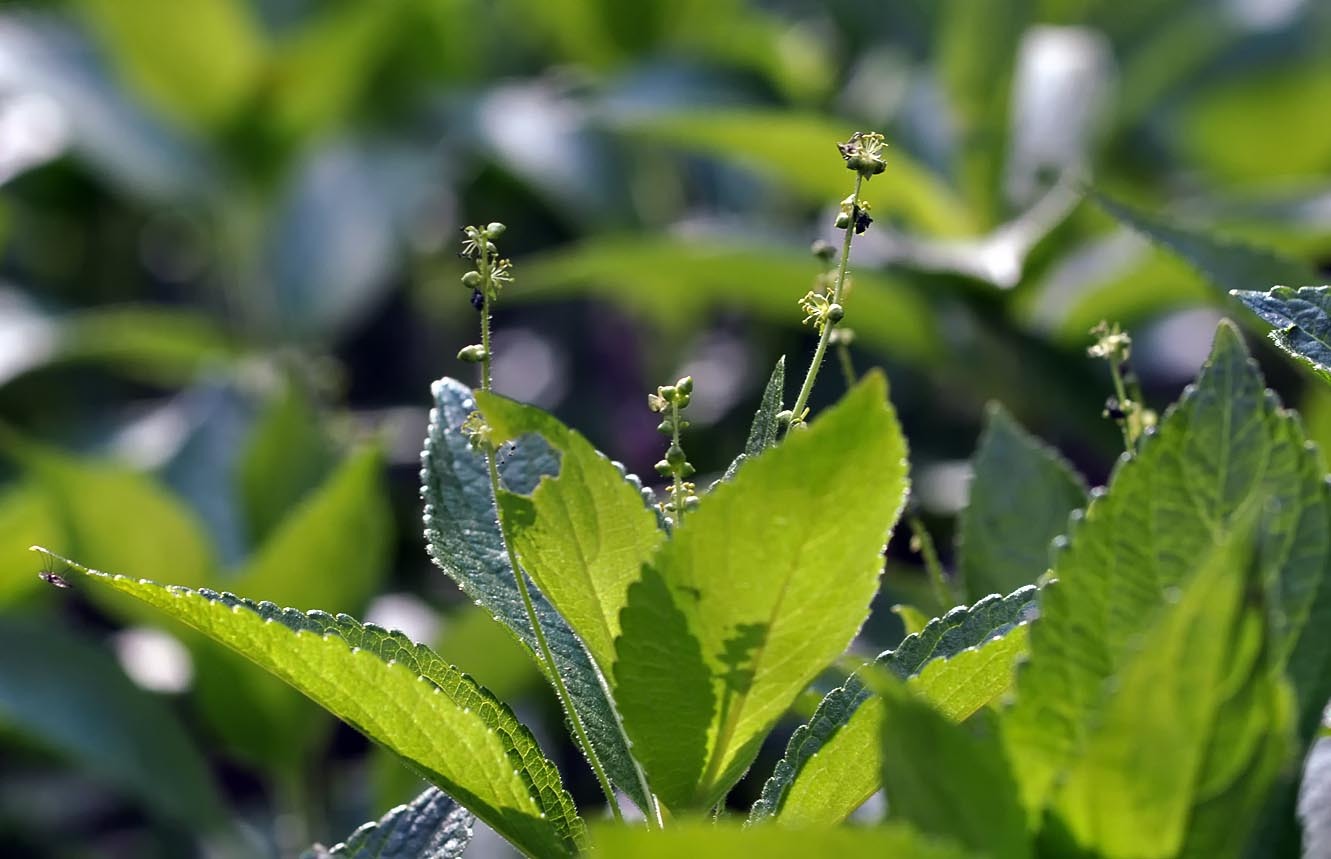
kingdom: Plantae
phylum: Tracheophyta
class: Magnoliopsida
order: Malpighiales
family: Euphorbiaceae
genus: Mercurialis
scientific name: Mercurialis perennis
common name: Dog mercury
